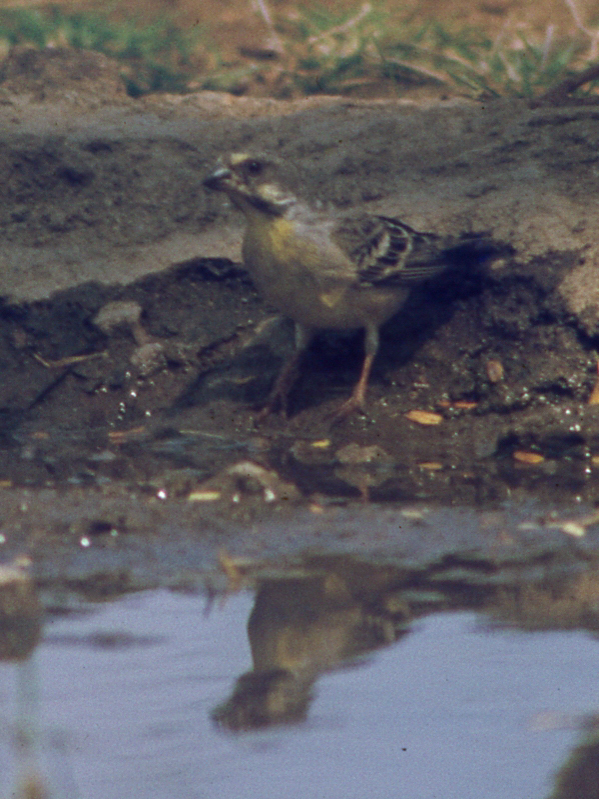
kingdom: Animalia
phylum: Chordata
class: Aves
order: Passeriformes
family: Fringillidae
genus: Crithagra
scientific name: Crithagra citrinipectus
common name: Lemon-breasted canary
